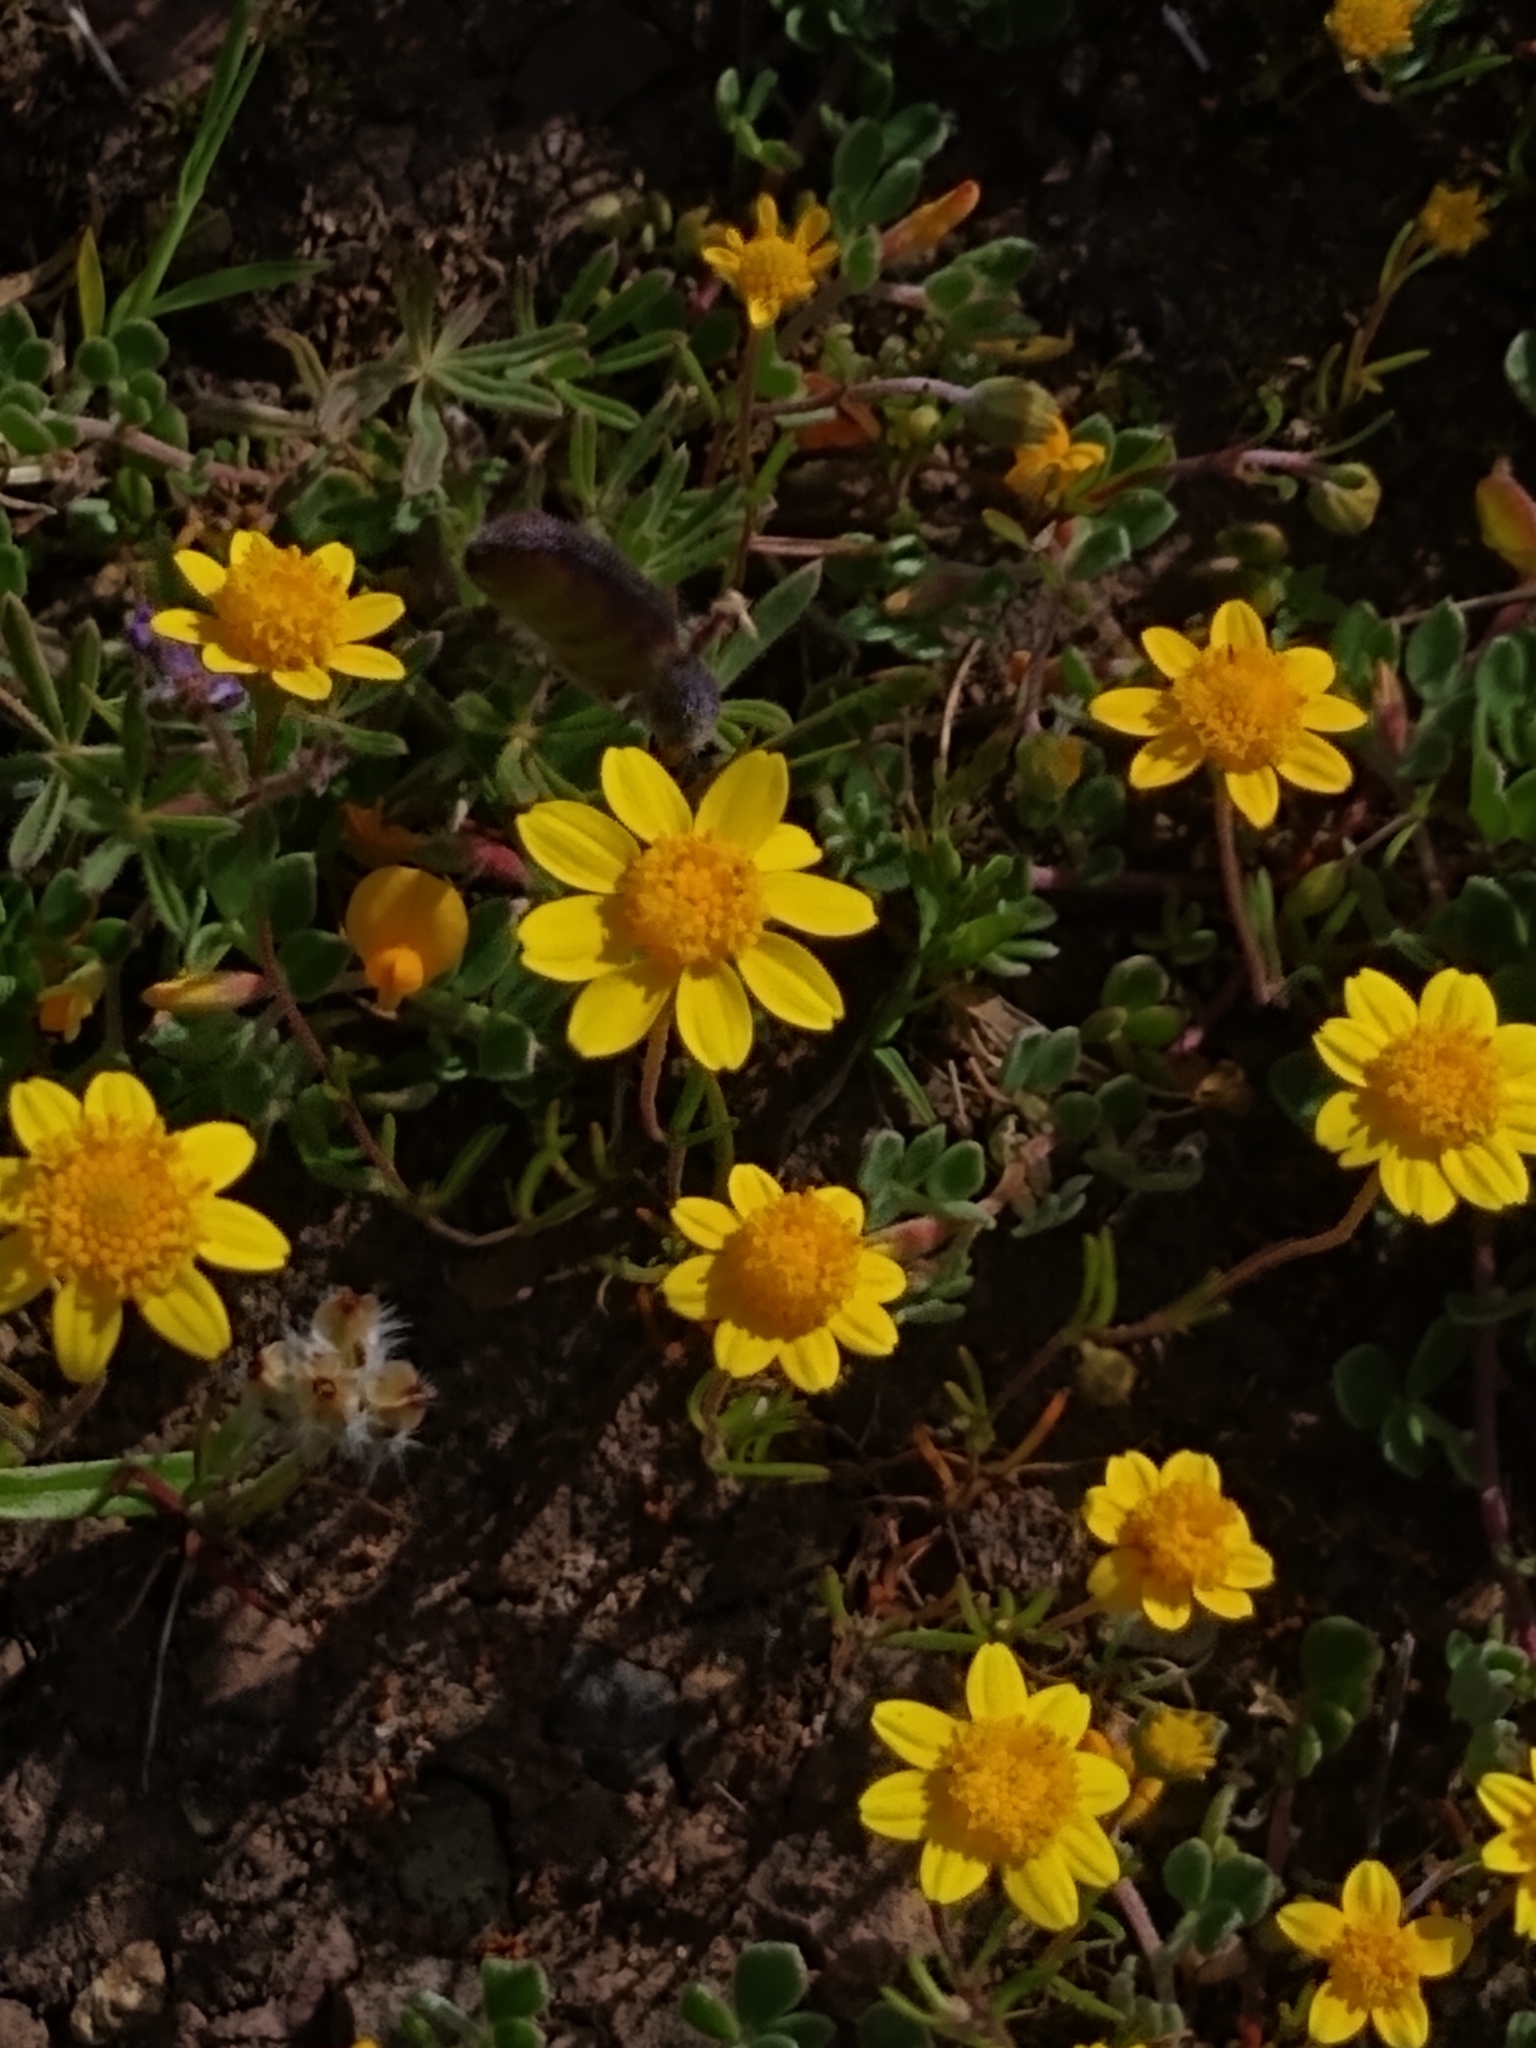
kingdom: Plantae
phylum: Tracheophyta
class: Magnoliopsida
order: Asterales
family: Asteraceae
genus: Lasthenia
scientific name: Lasthenia californica
